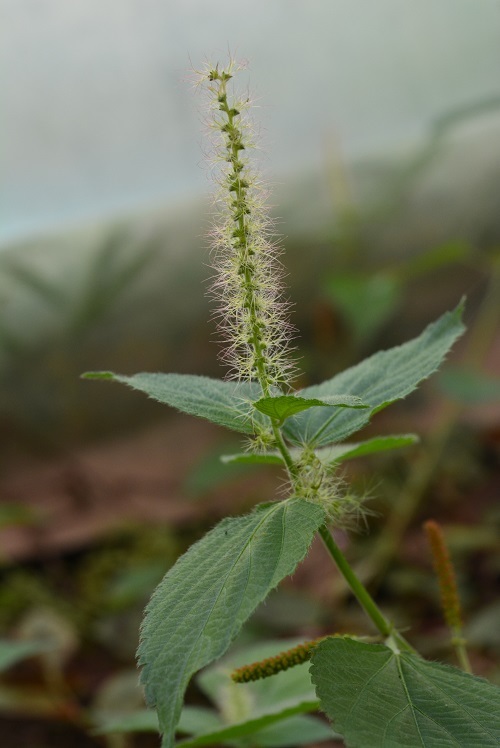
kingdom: Plantae
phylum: Tracheophyta
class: Magnoliopsida
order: Malpighiales
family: Euphorbiaceae
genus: Acalypha
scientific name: Acalypha phleoides
